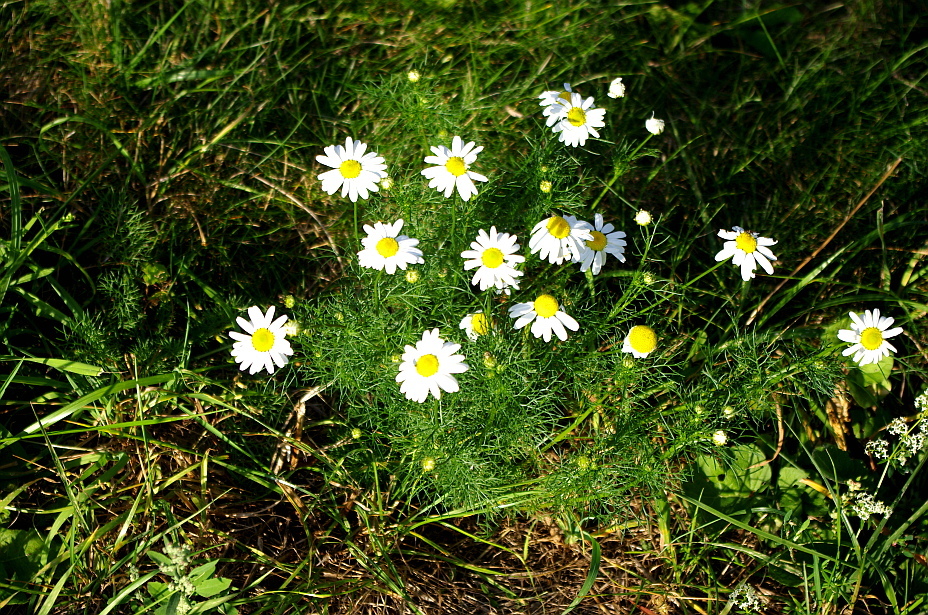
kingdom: Plantae
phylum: Tracheophyta
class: Magnoliopsida
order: Asterales
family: Asteraceae
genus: Tripleurospermum
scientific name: Tripleurospermum inodorum
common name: Scentless mayweed
